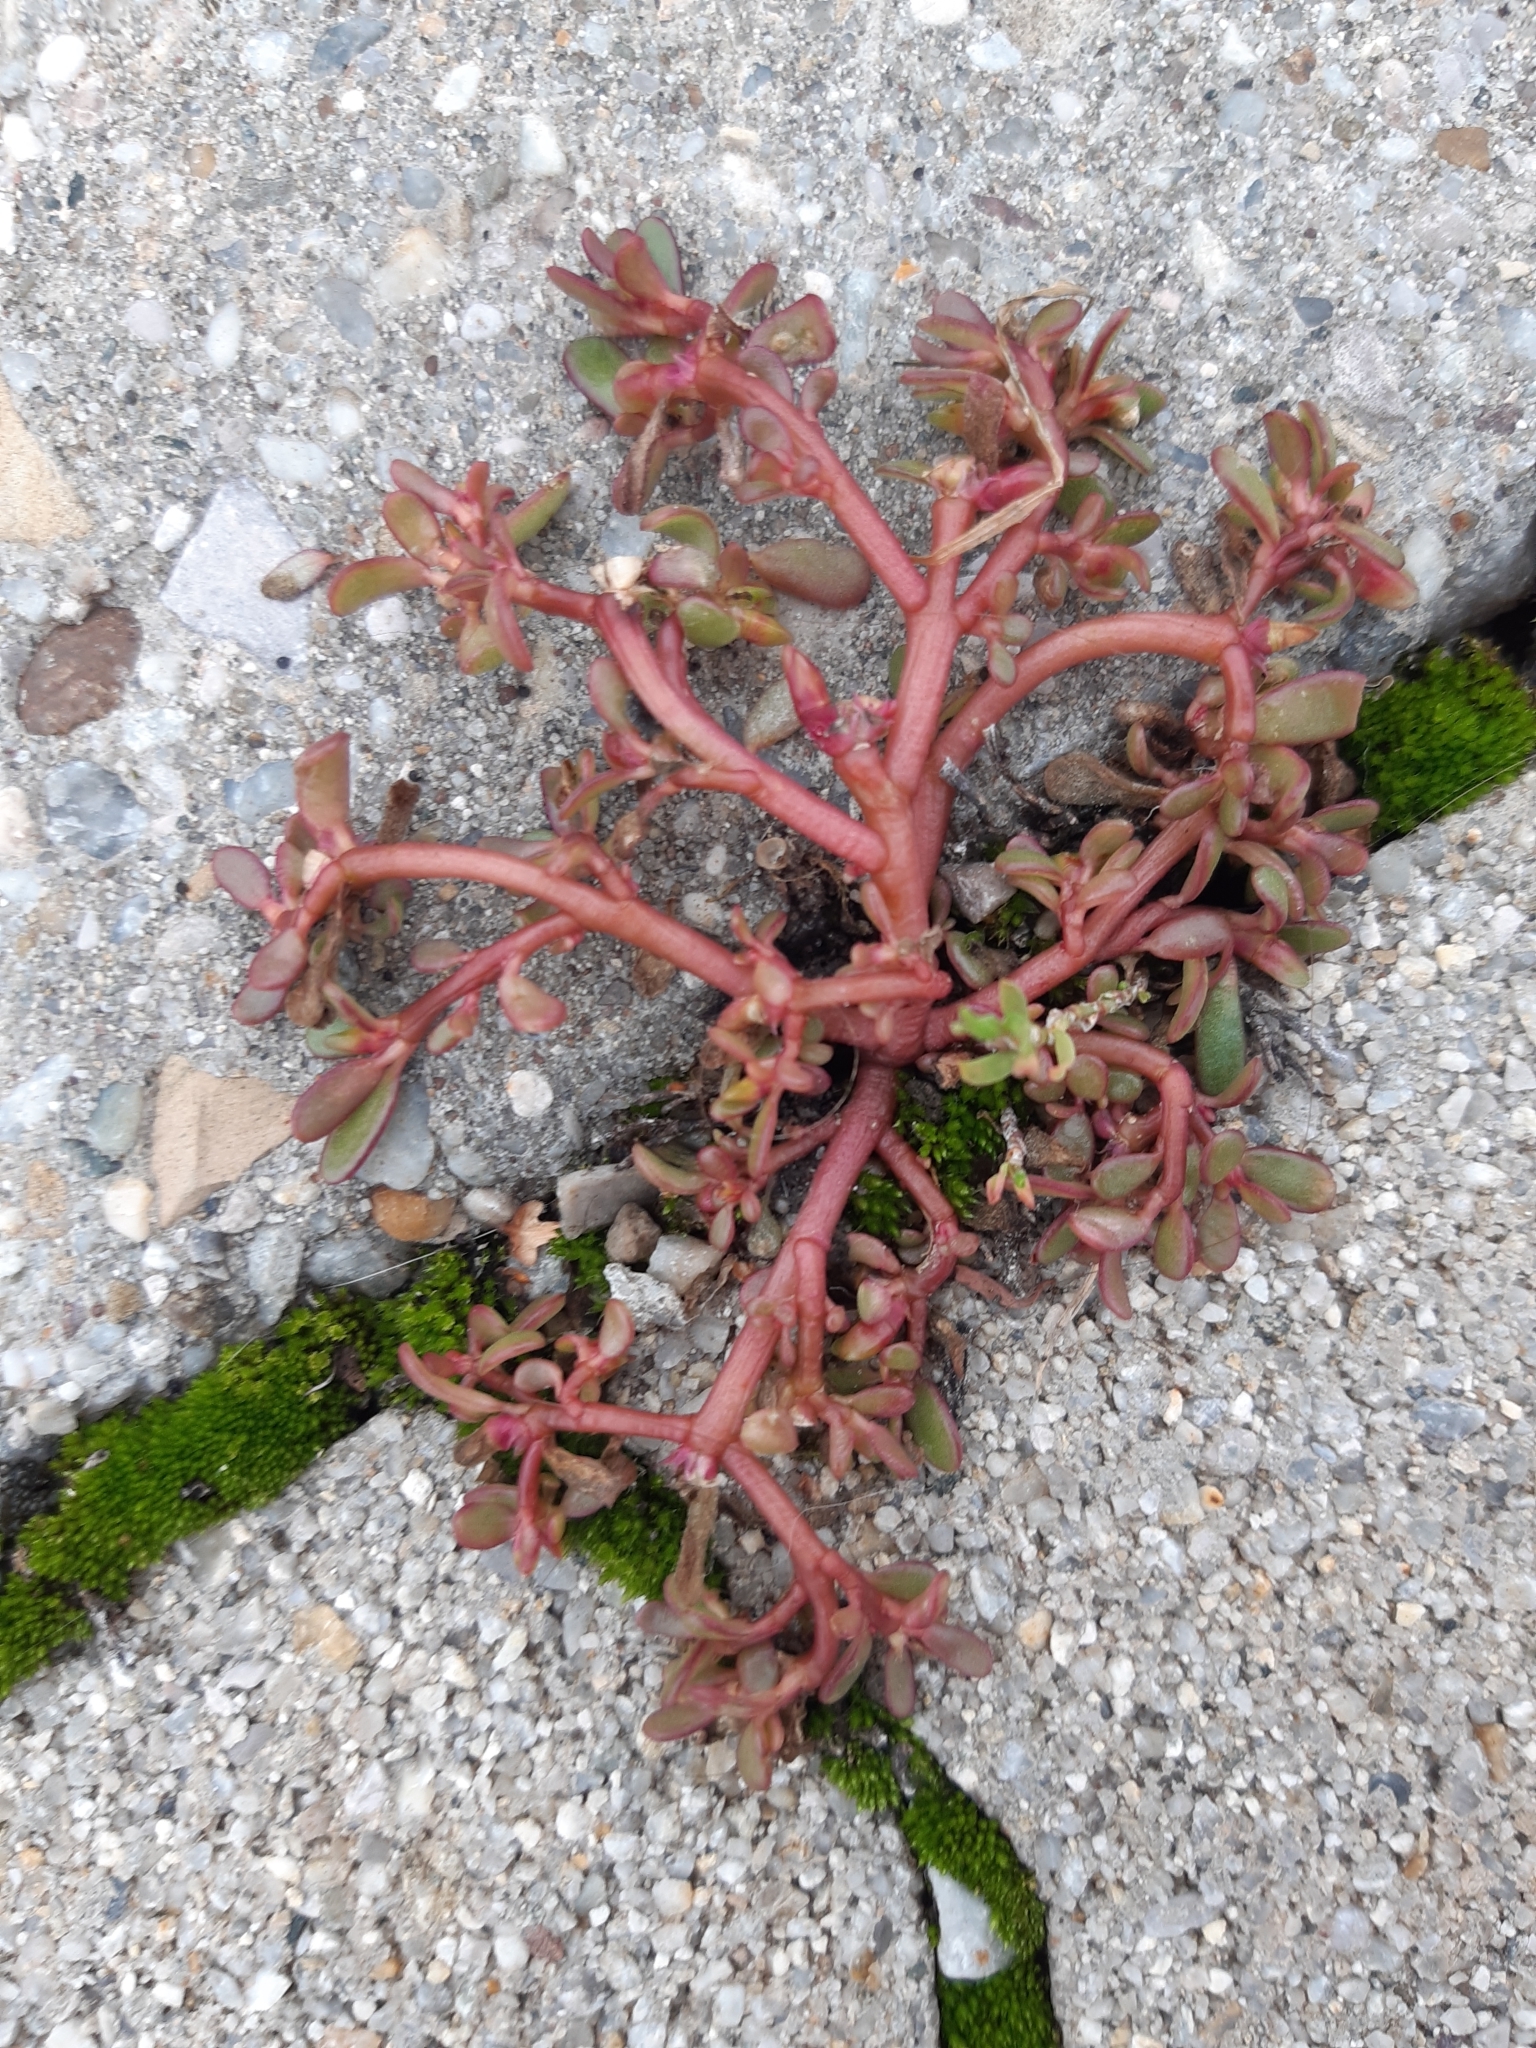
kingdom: Plantae
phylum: Tracheophyta
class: Magnoliopsida
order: Caryophyllales
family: Portulacaceae
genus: Portulaca
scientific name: Portulaca oleracea
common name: Common purslane
